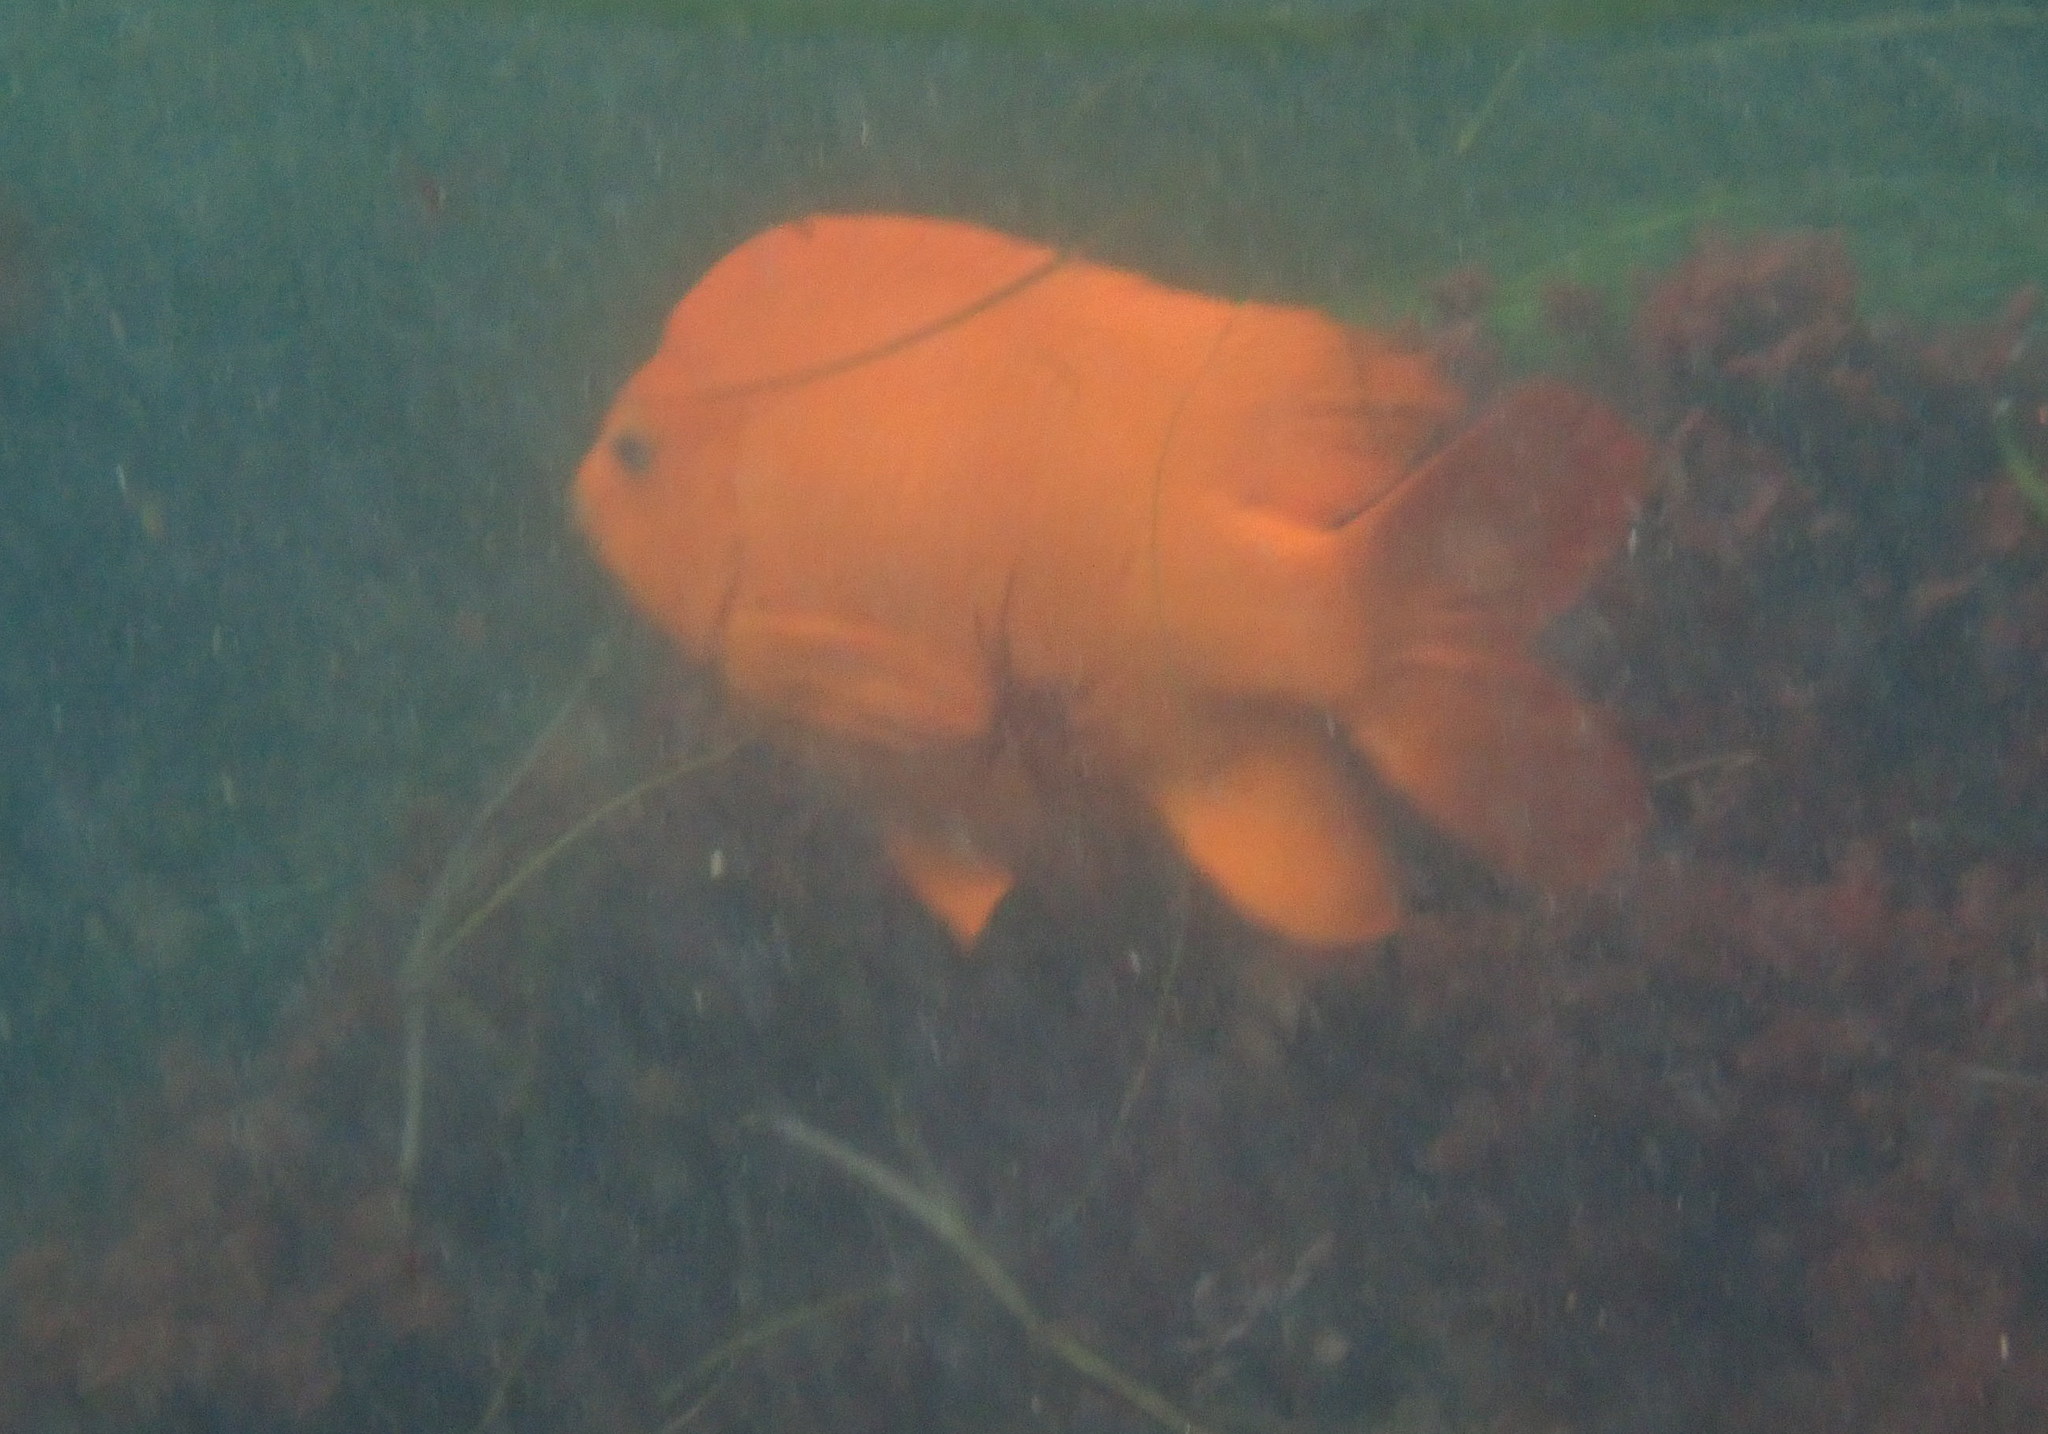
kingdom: Animalia
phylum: Chordata
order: Perciformes
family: Pomacentridae
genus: Hypsypops
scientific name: Hypsypops rubicundus
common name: Garibaldi
